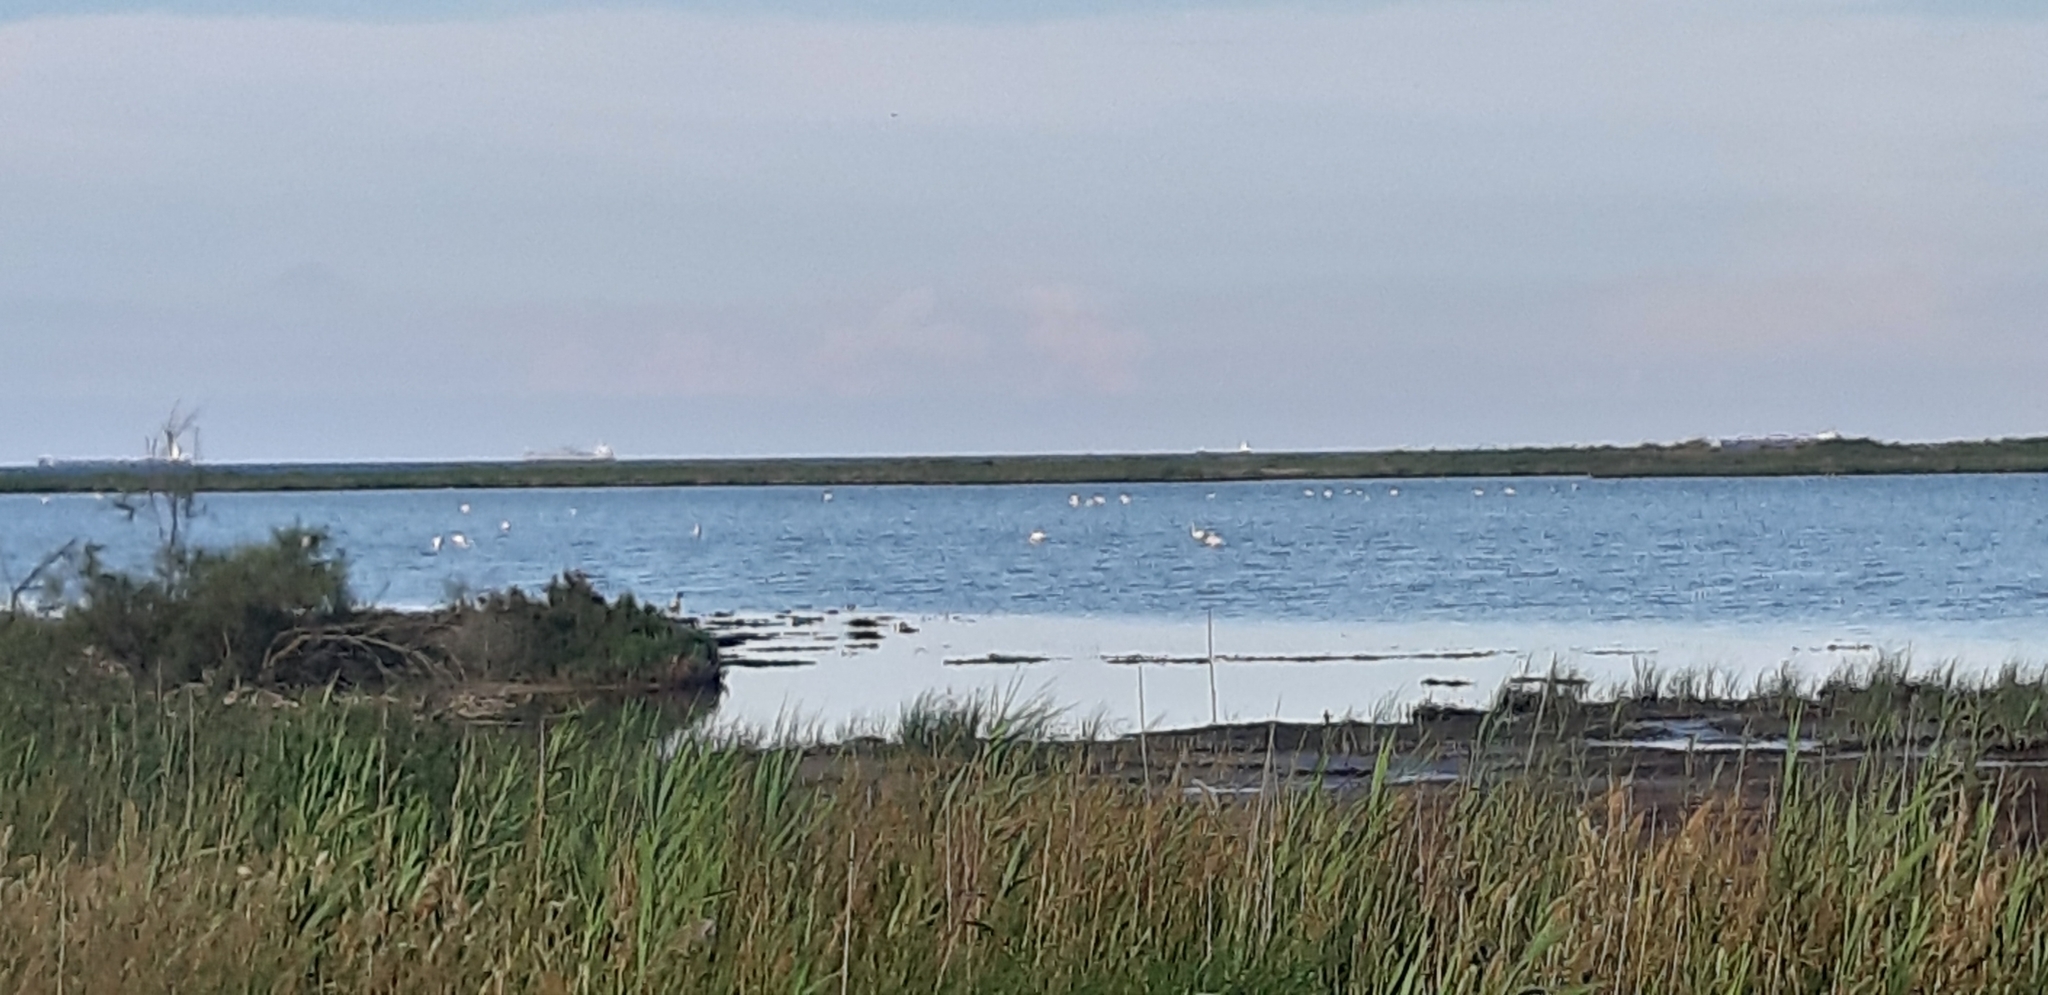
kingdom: Animalia
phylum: Chordata
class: Aves
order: Phoenicopteriformes
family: Phoenicopteridae
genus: Phoenicopterus
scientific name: Phoenicopterus roseus
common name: Greater flamingo
